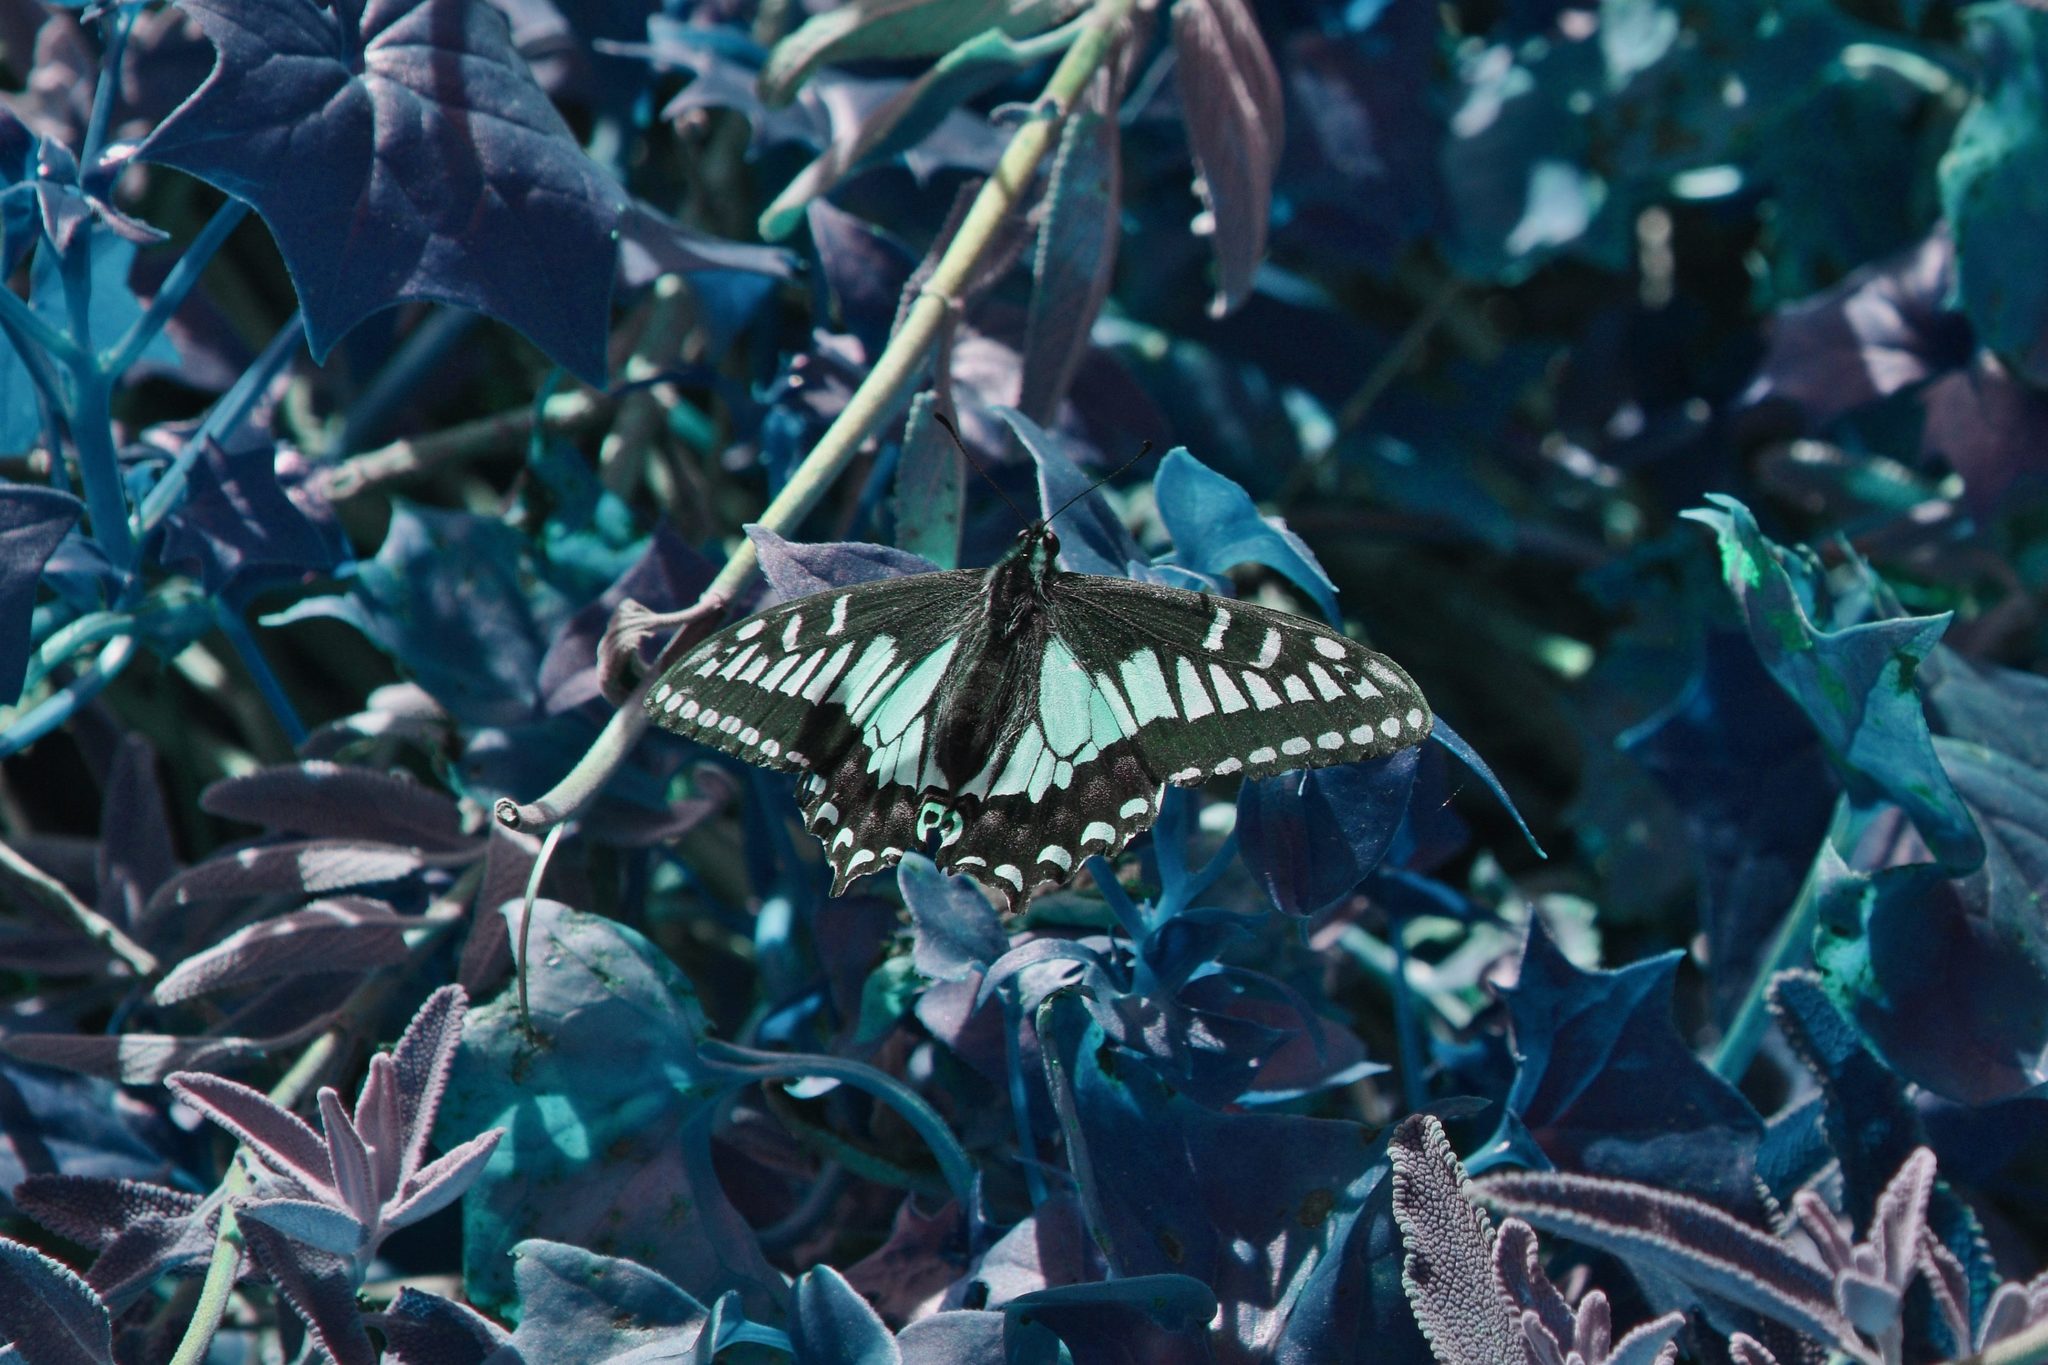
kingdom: Animalia
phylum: Arthropoda
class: Insecta
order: Lepidoptera
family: Papilionidae
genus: Papilio
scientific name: Papilio zelicaon
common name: Anise swallowtail
